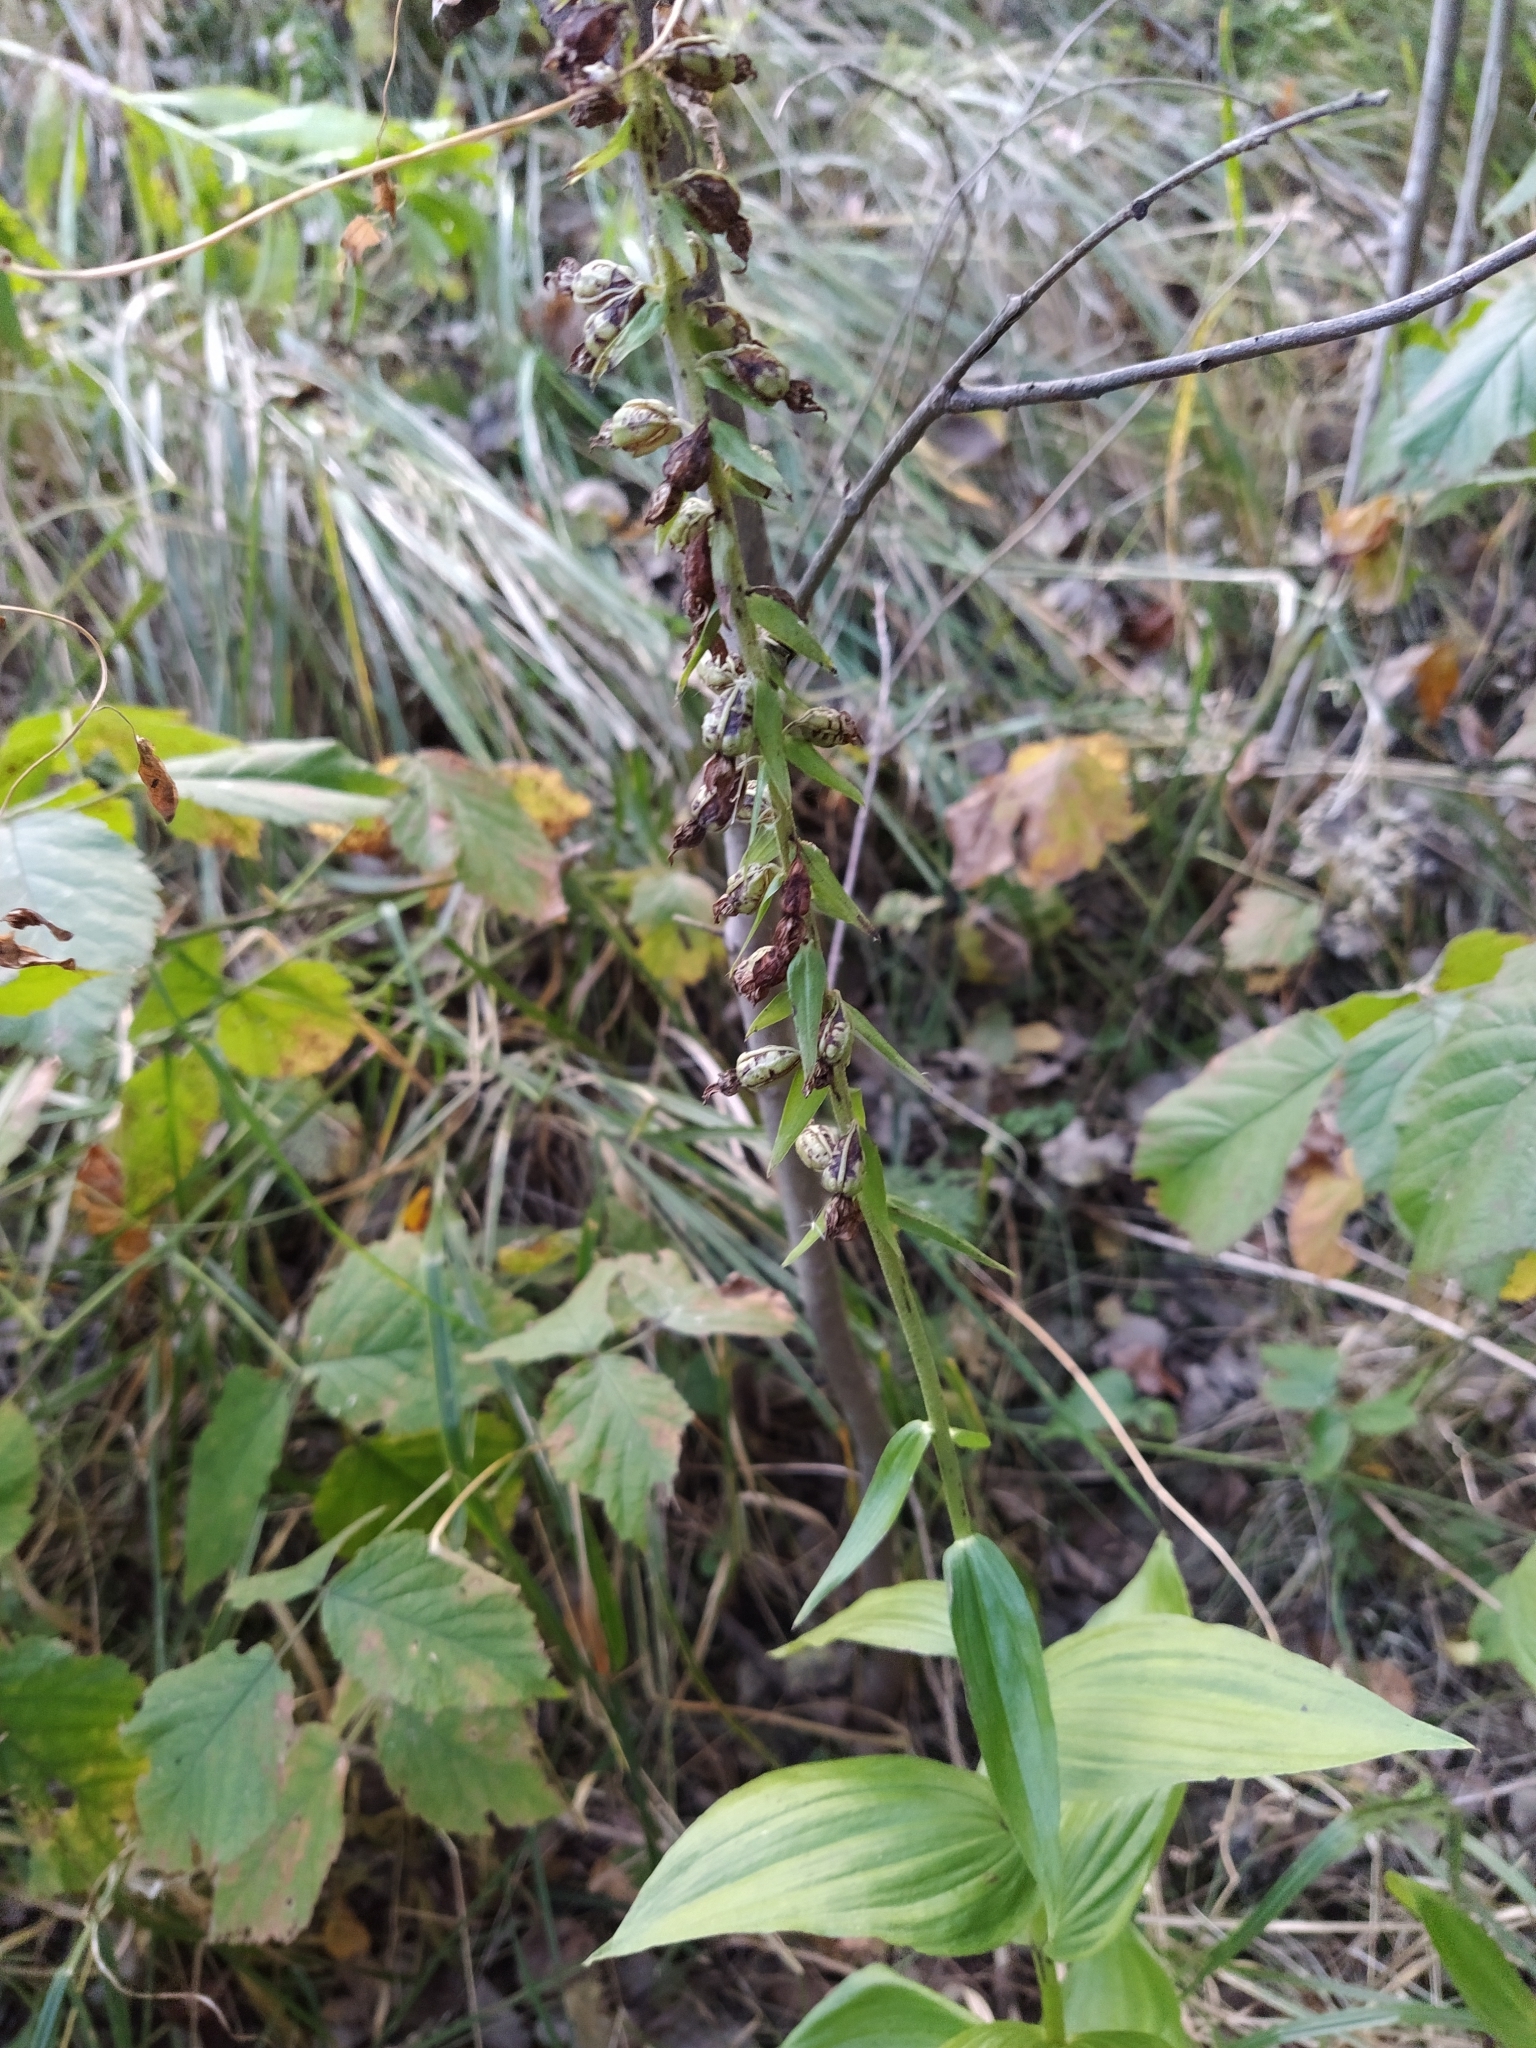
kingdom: Plantae
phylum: Tracheophyta
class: Liliopsida
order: Asparagales
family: Orchidaceae
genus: Epipactis
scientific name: Epipactis helleborine
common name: Broad-leaved helleborine
